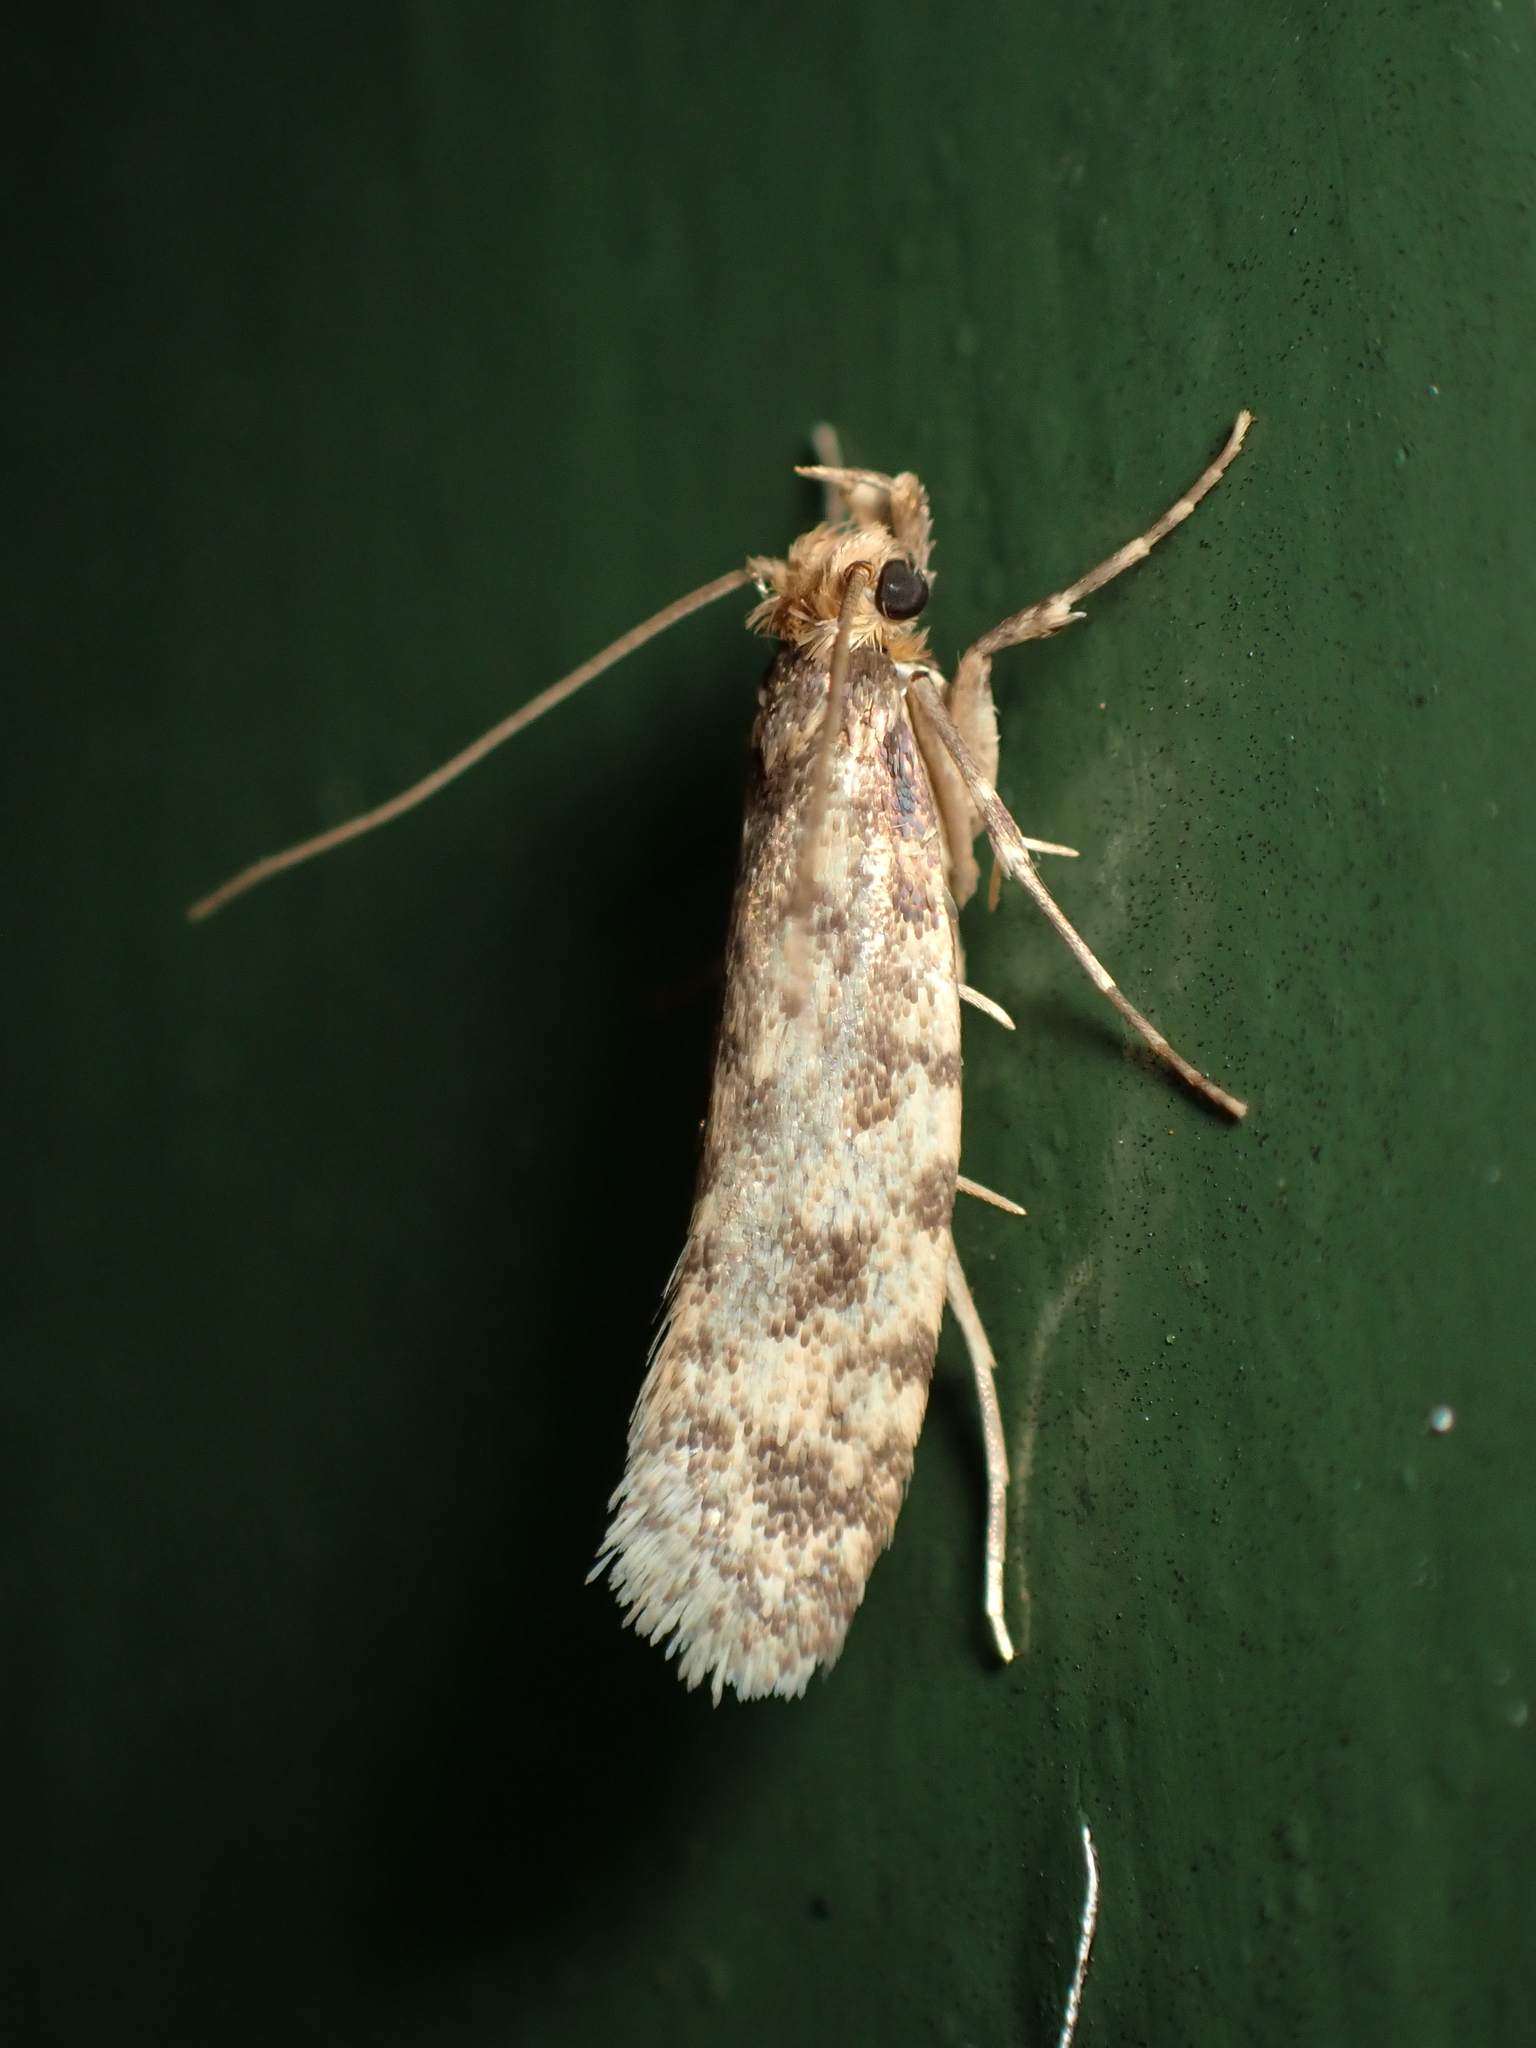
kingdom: Animalia
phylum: Arthropoda
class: Insecta
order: Lepidoptera
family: Tineidae
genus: Lindera
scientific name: Lindera tessellatella
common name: Moth
